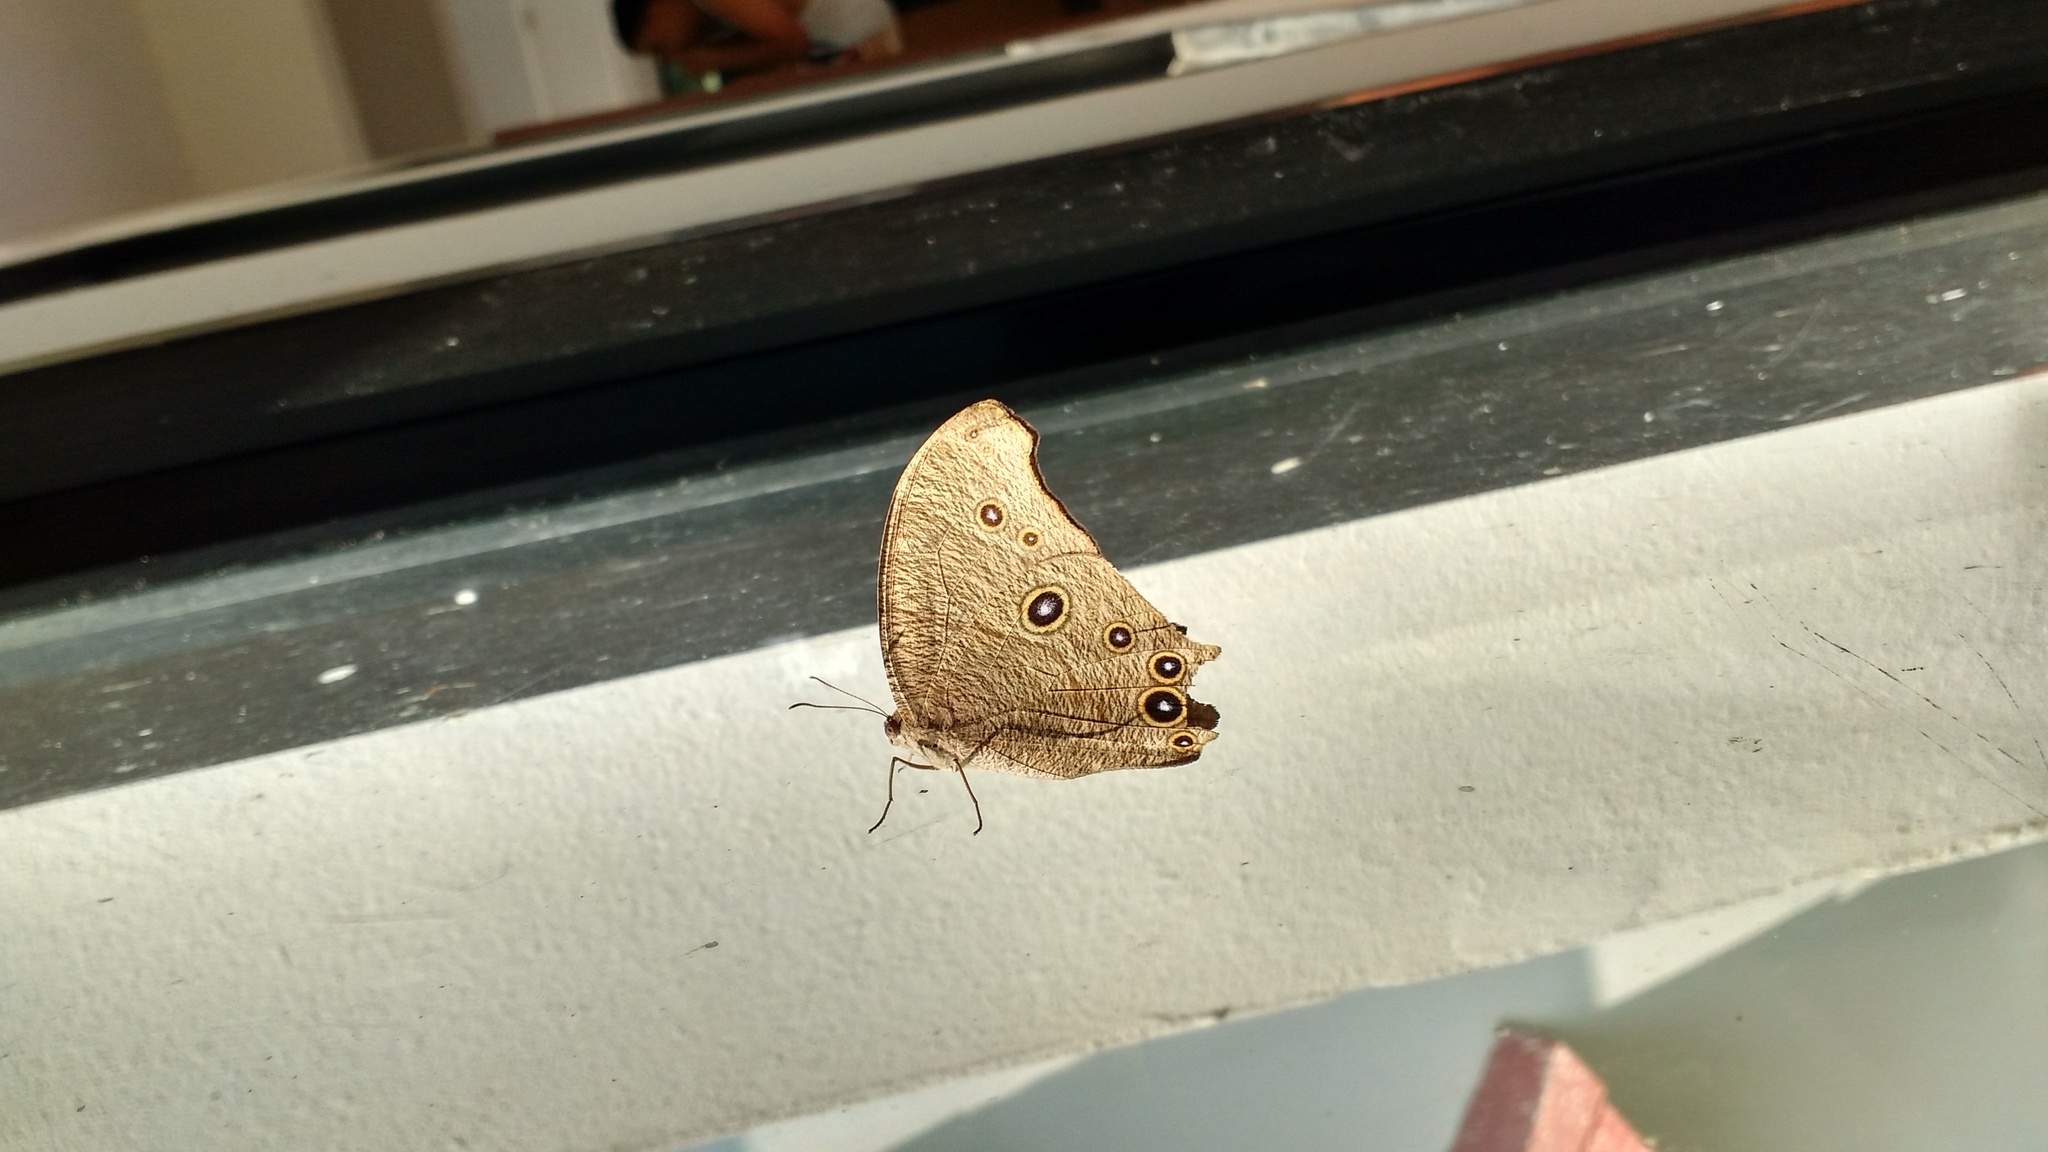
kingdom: Animalia
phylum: Arthropoda
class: Insecta
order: Lepidoptera
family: Nymphalidae
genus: Melanitis
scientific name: Melanitis leda
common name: Twilight brown
